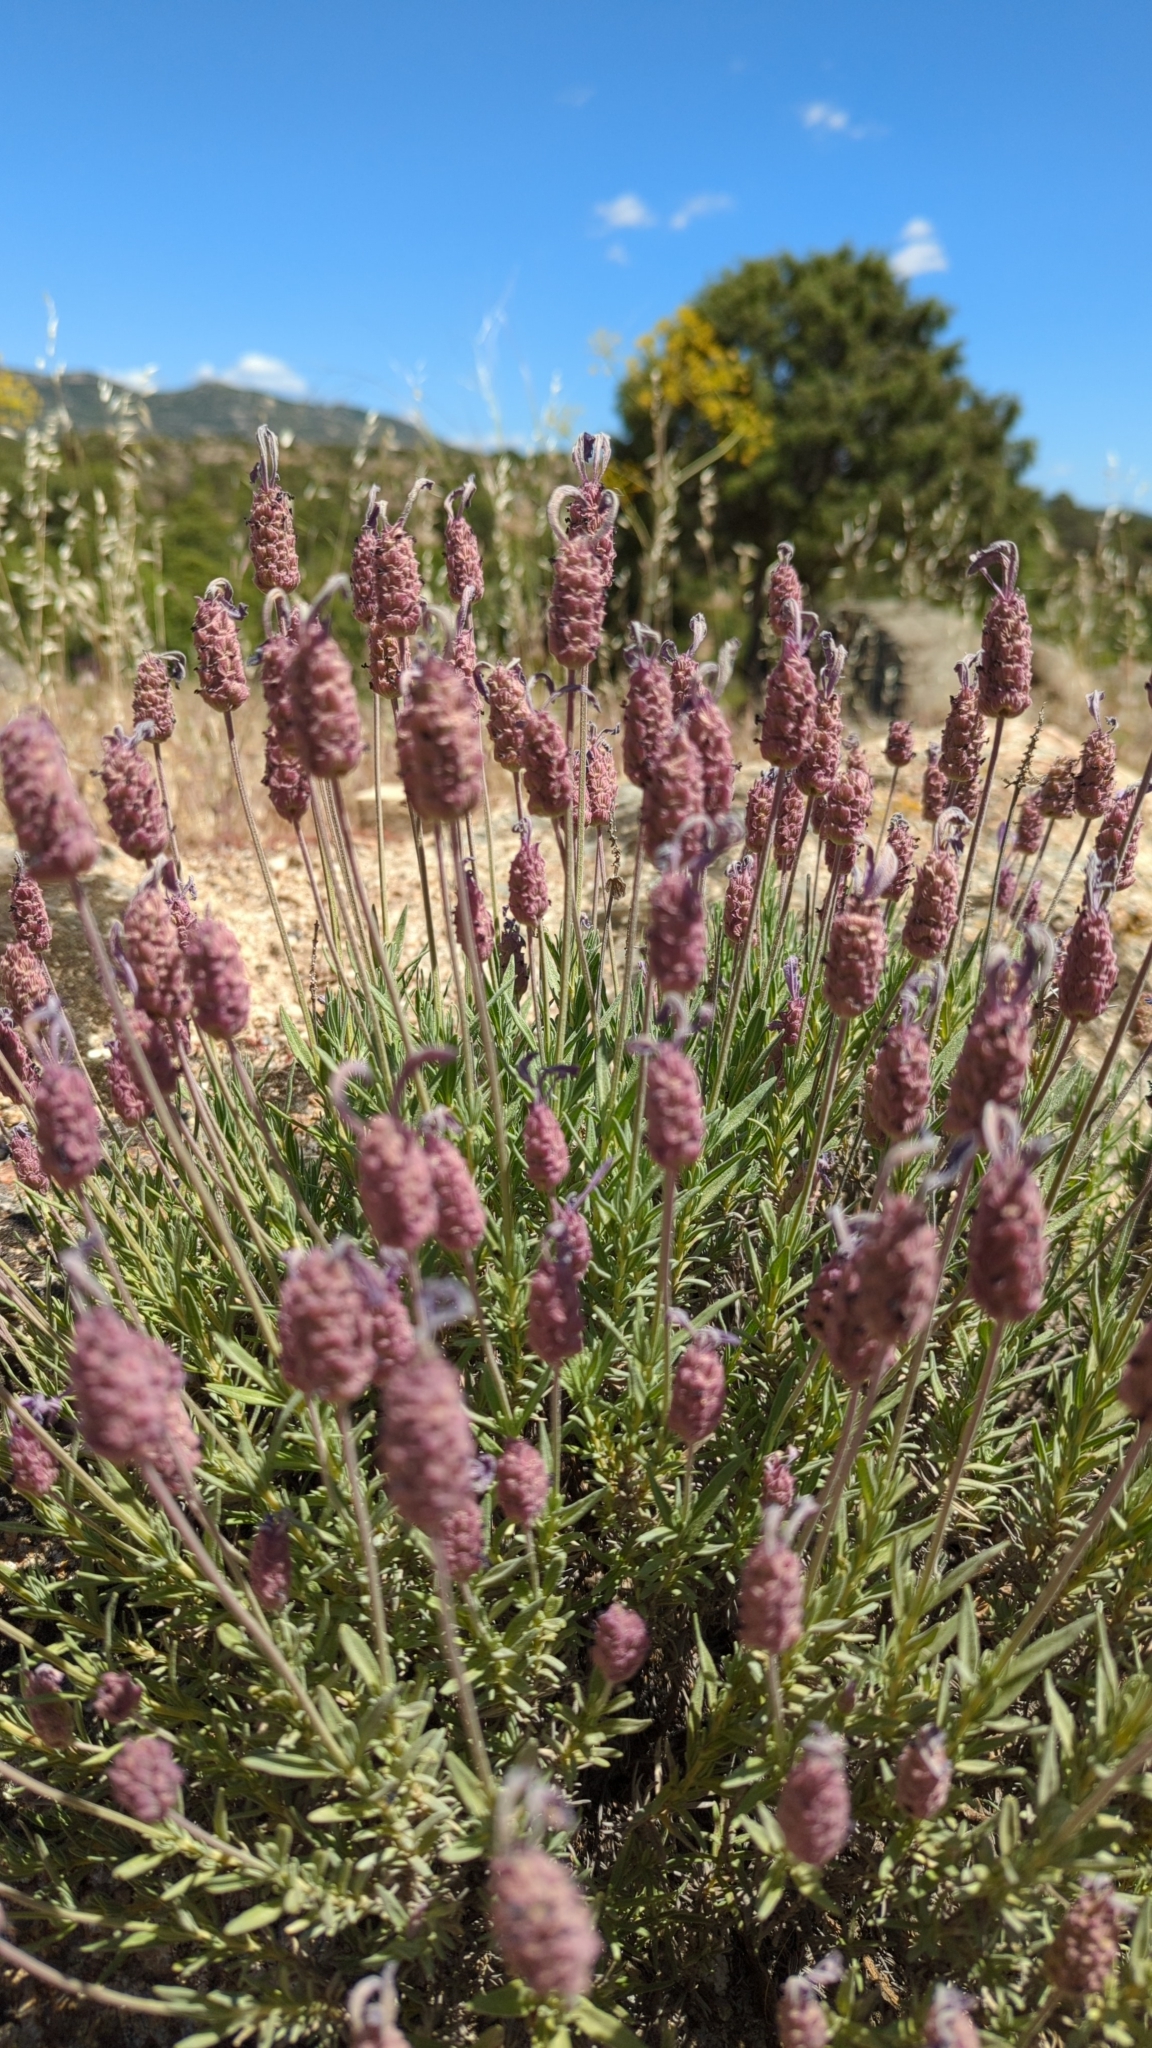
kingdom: Plantae
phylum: Tracheophyta
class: Magnoliopsida
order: Lamiales
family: Lamiaceae
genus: Lavandula
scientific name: Lavandula pedunculata
